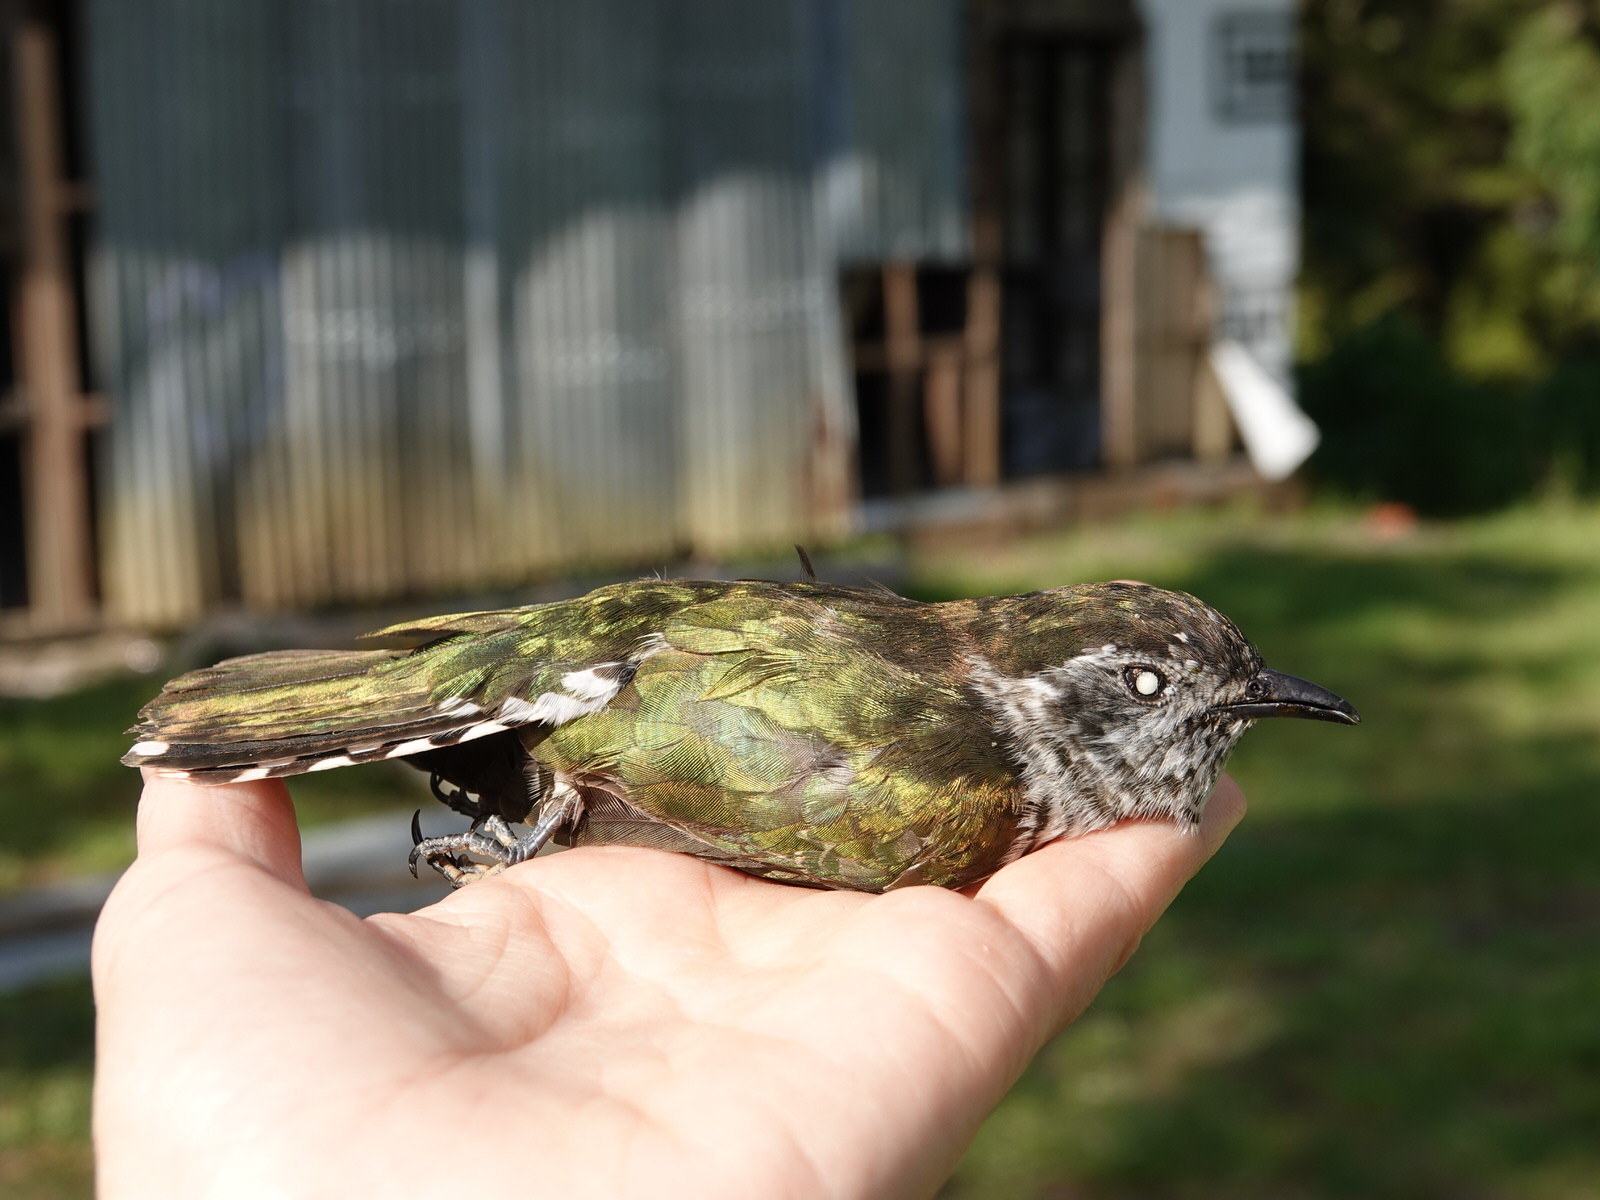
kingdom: Animalia
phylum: Chordata
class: Aves
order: Cuculiformes
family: Cuculidae
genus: Chrysococcyx
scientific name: Chrysococcyx lucidus
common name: Shining bronze cuckoo
